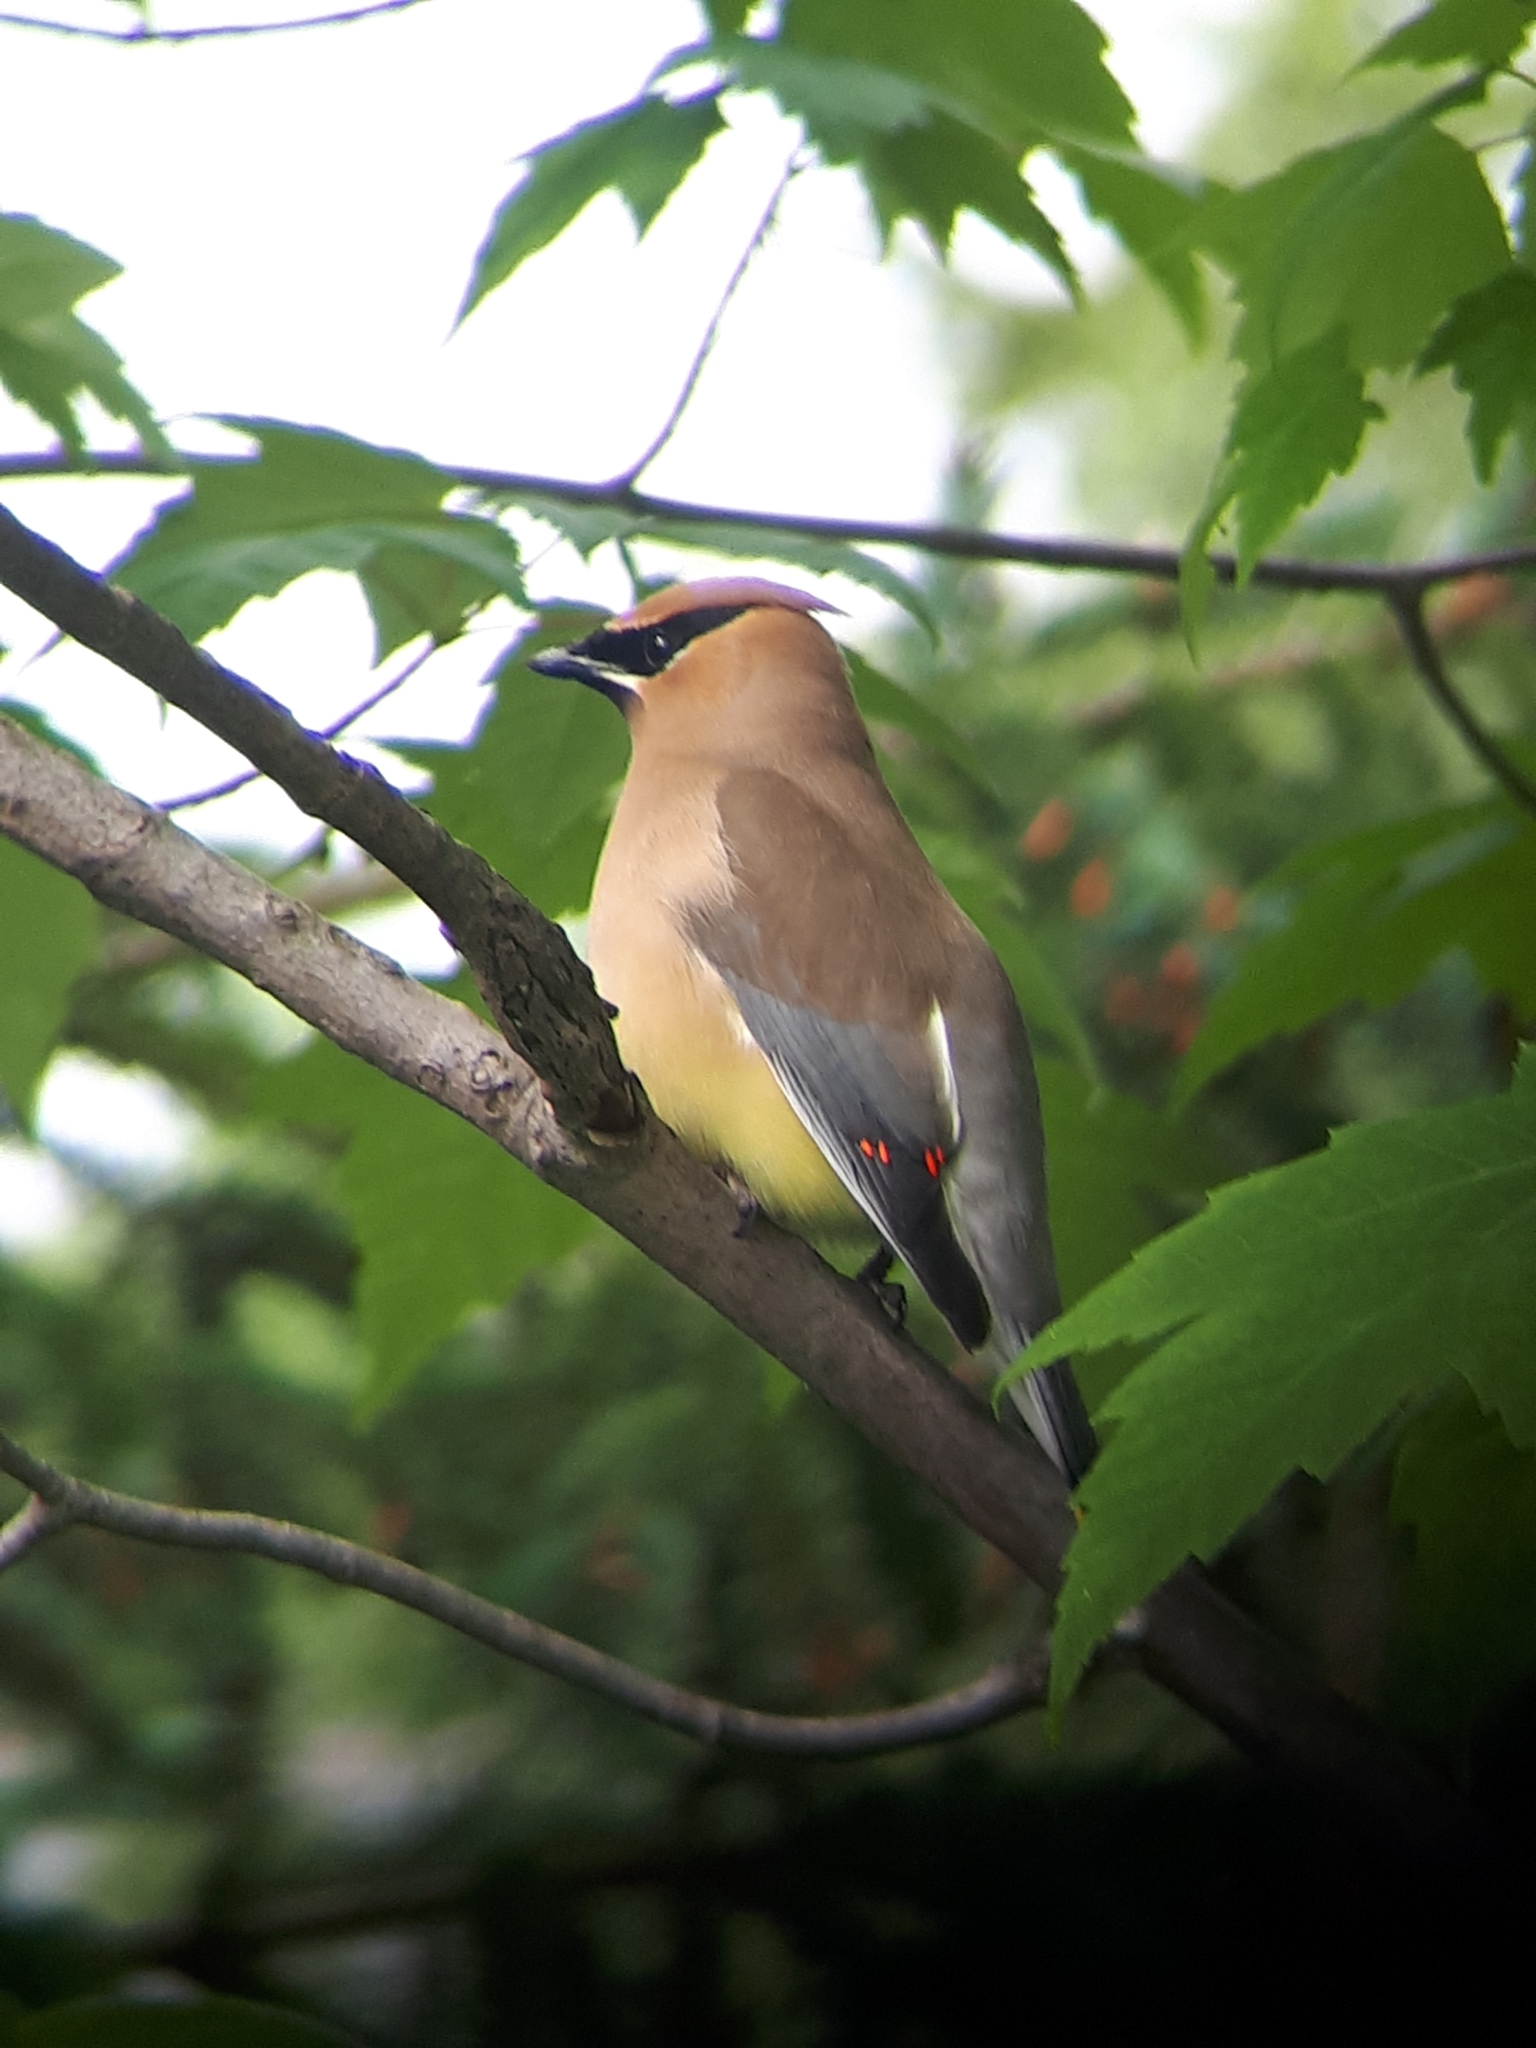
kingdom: Animalia
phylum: Chordata
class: Aves
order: Passeriformes
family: Bombycillidae
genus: Bombycilla
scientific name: Bombycilla cedrorum
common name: Cedar waxwing
